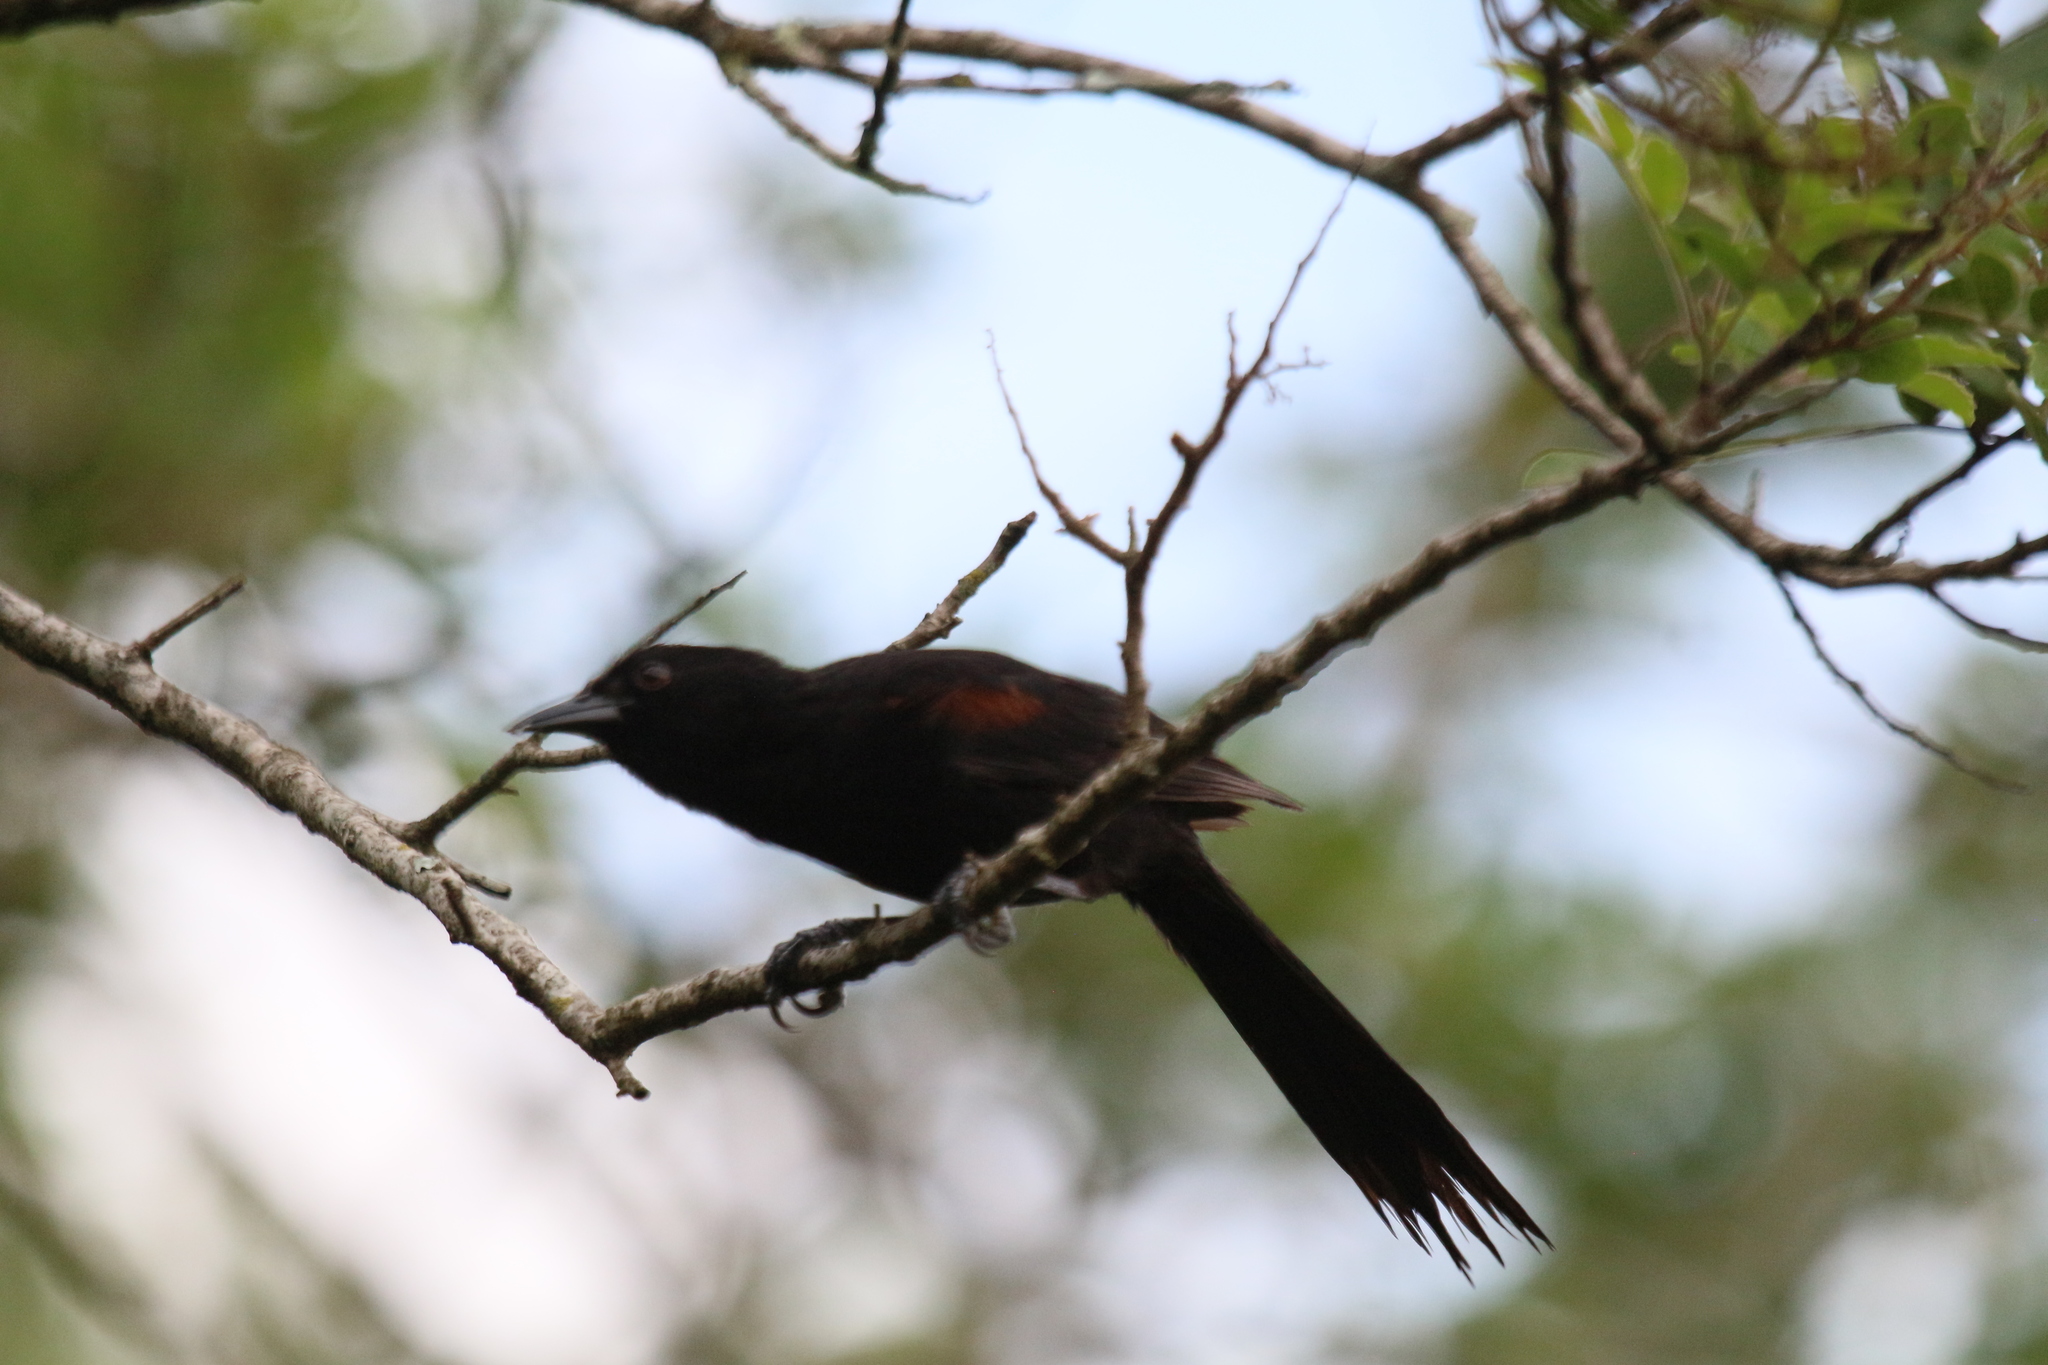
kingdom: Animalia
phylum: Chordata
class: Aves
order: Passeriformes
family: Icteridae
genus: Icterus
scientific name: Icterus cayanensis
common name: Epaulet oriole
